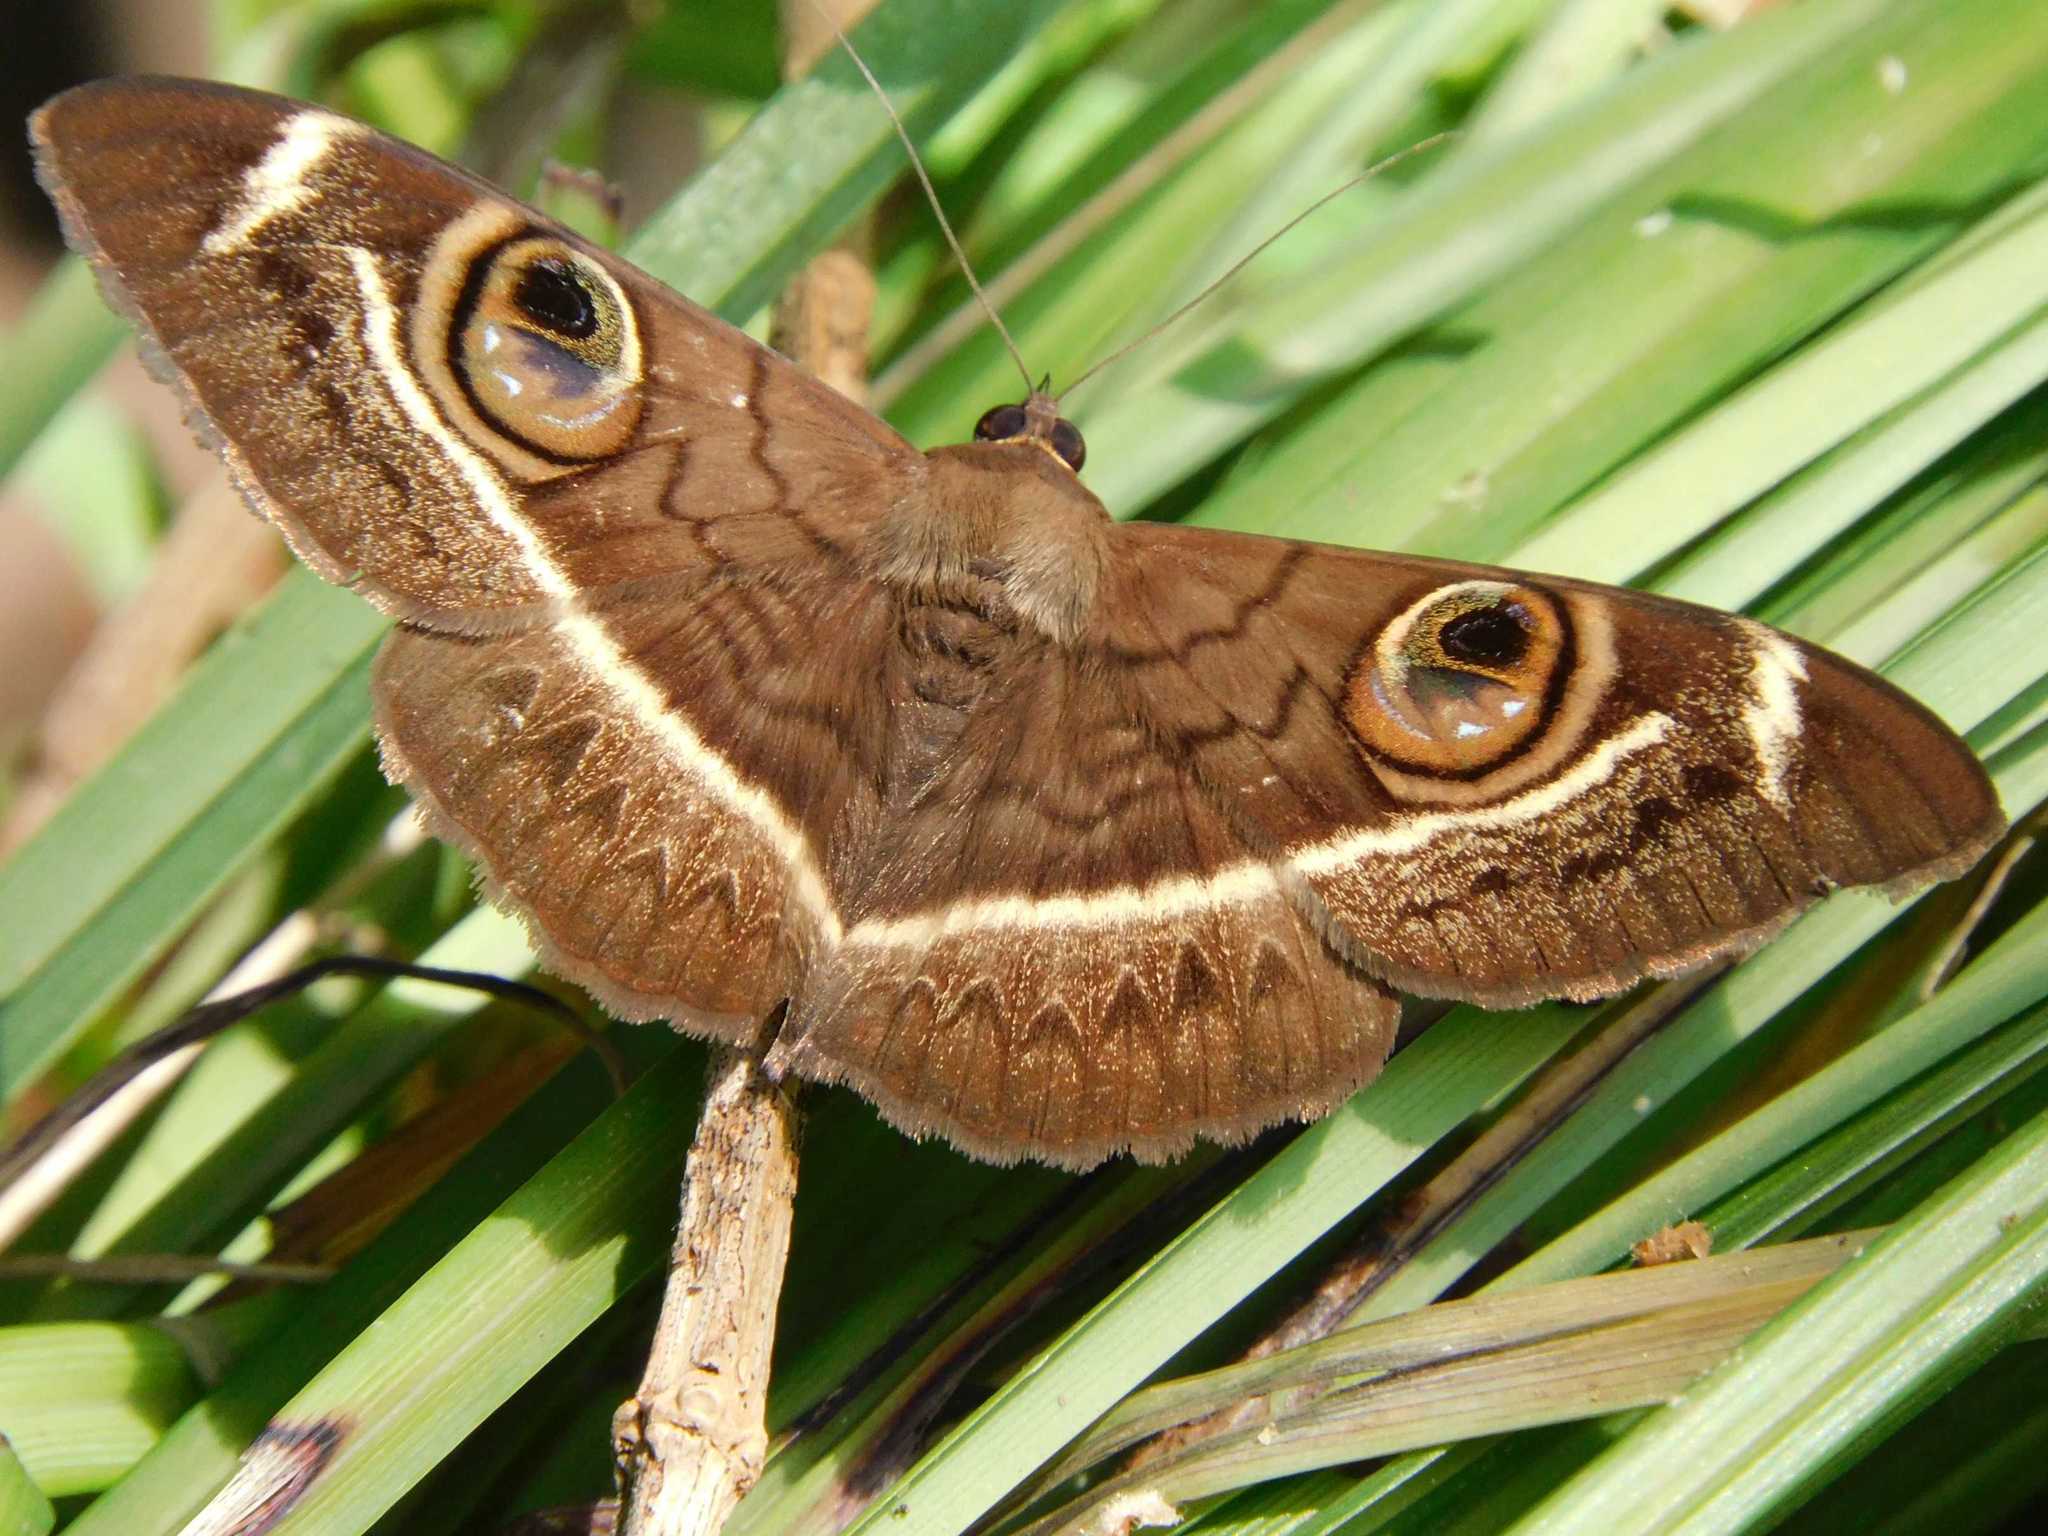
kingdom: Animalia
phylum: Arthropoda
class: Insecta
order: Lepidoptera
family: Erebidae
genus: Cyligramma
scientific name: Cyligramma latona
